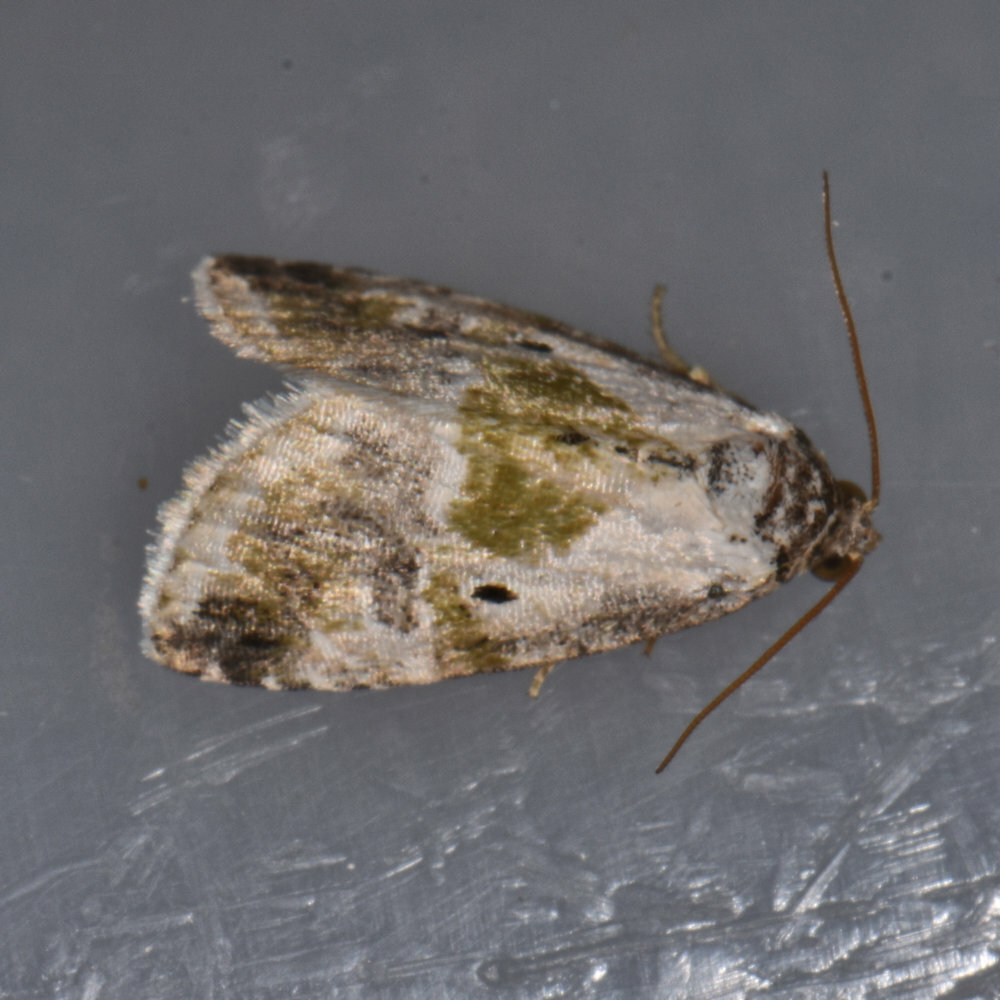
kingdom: Animalia
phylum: Arthropoda
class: Insecta
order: Lepidoptera
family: Noctuidae
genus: Maliattha
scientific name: Maliattha synochitis
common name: Black-dotted glyph
